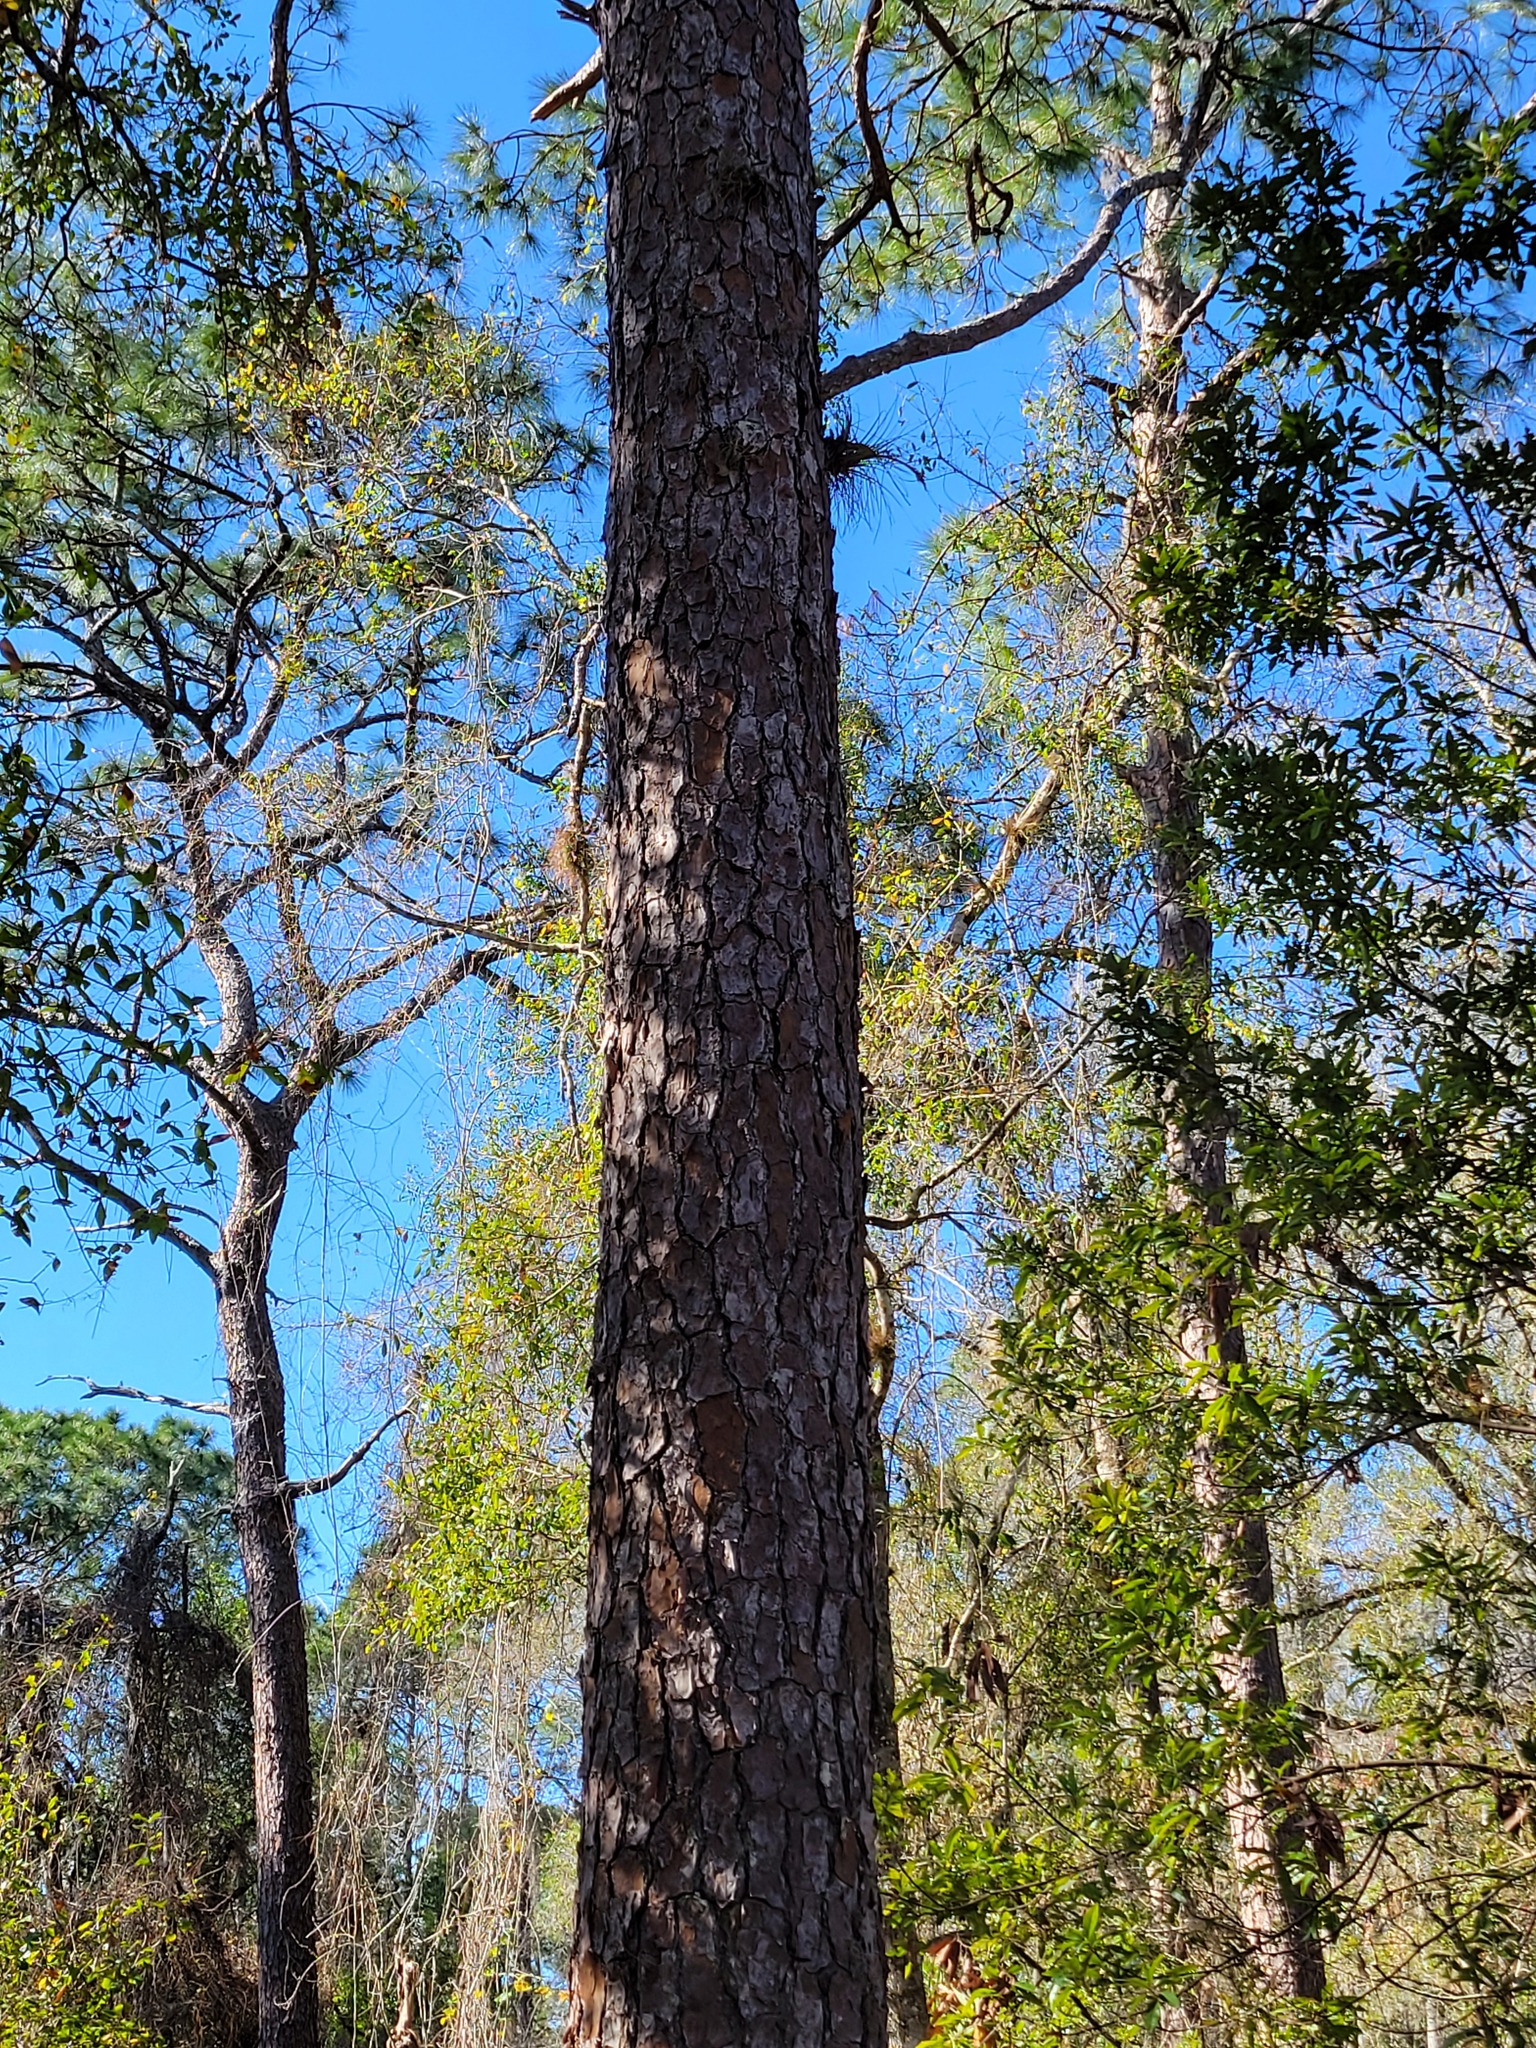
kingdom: Plantae
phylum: Tracheophyta
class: Pinopsida
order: Pinales
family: Pinaceae
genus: Pinus
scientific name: Pinus elliottii
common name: Slash pine
